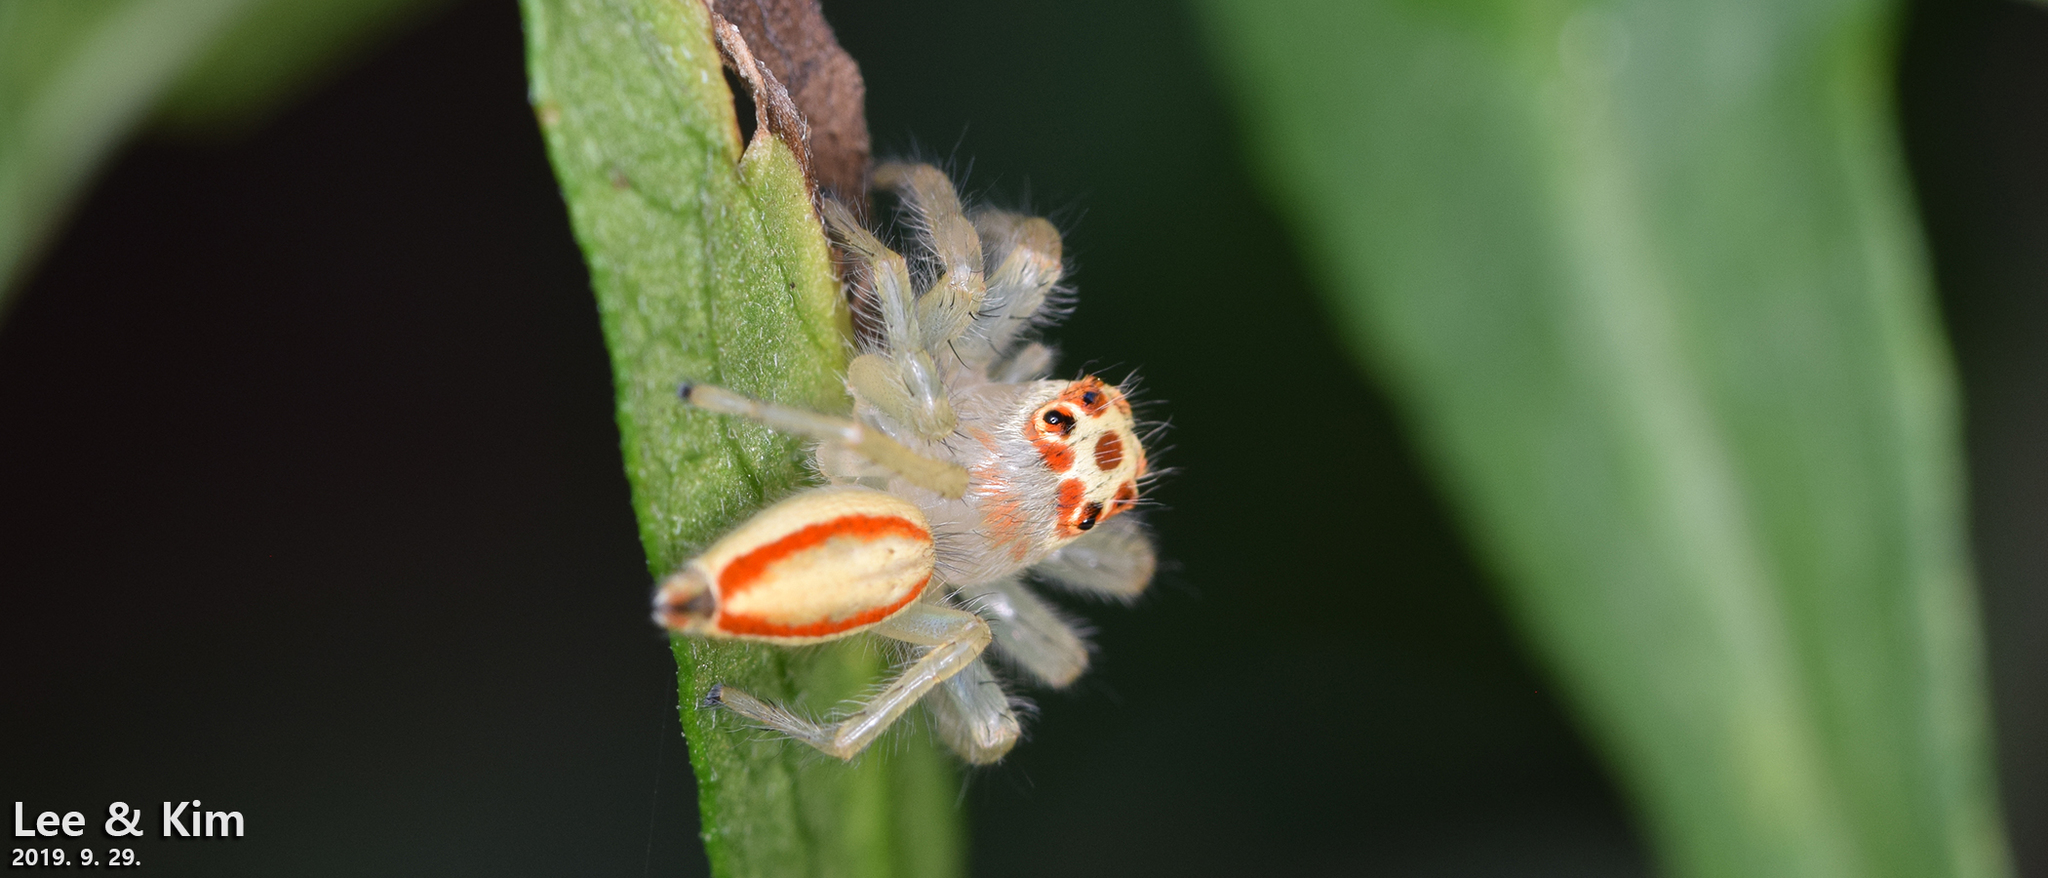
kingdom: Animalia
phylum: Arthropoda
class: Arachnida
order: Araneae
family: Salticidae
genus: Telamonia
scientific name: Telamonia vlijmi
